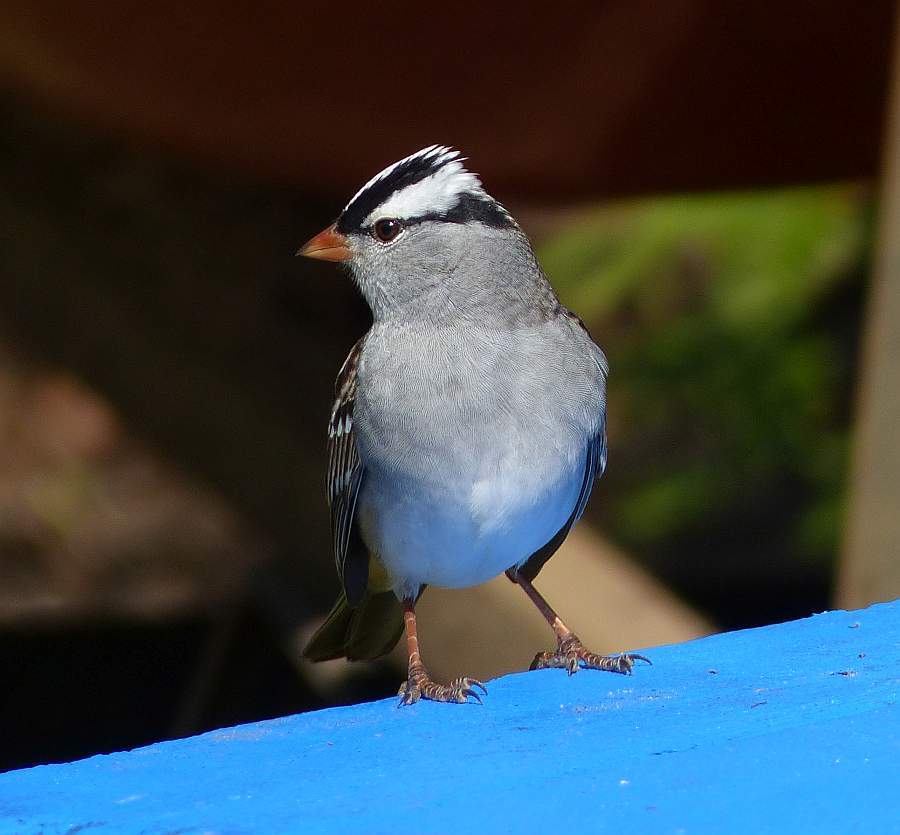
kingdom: Animalia
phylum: Chordata
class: Aves
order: Passeriformes
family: Passerellidae
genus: Zonotrichia
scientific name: Zonotrichia leucophrys
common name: White-crowned sparrow
